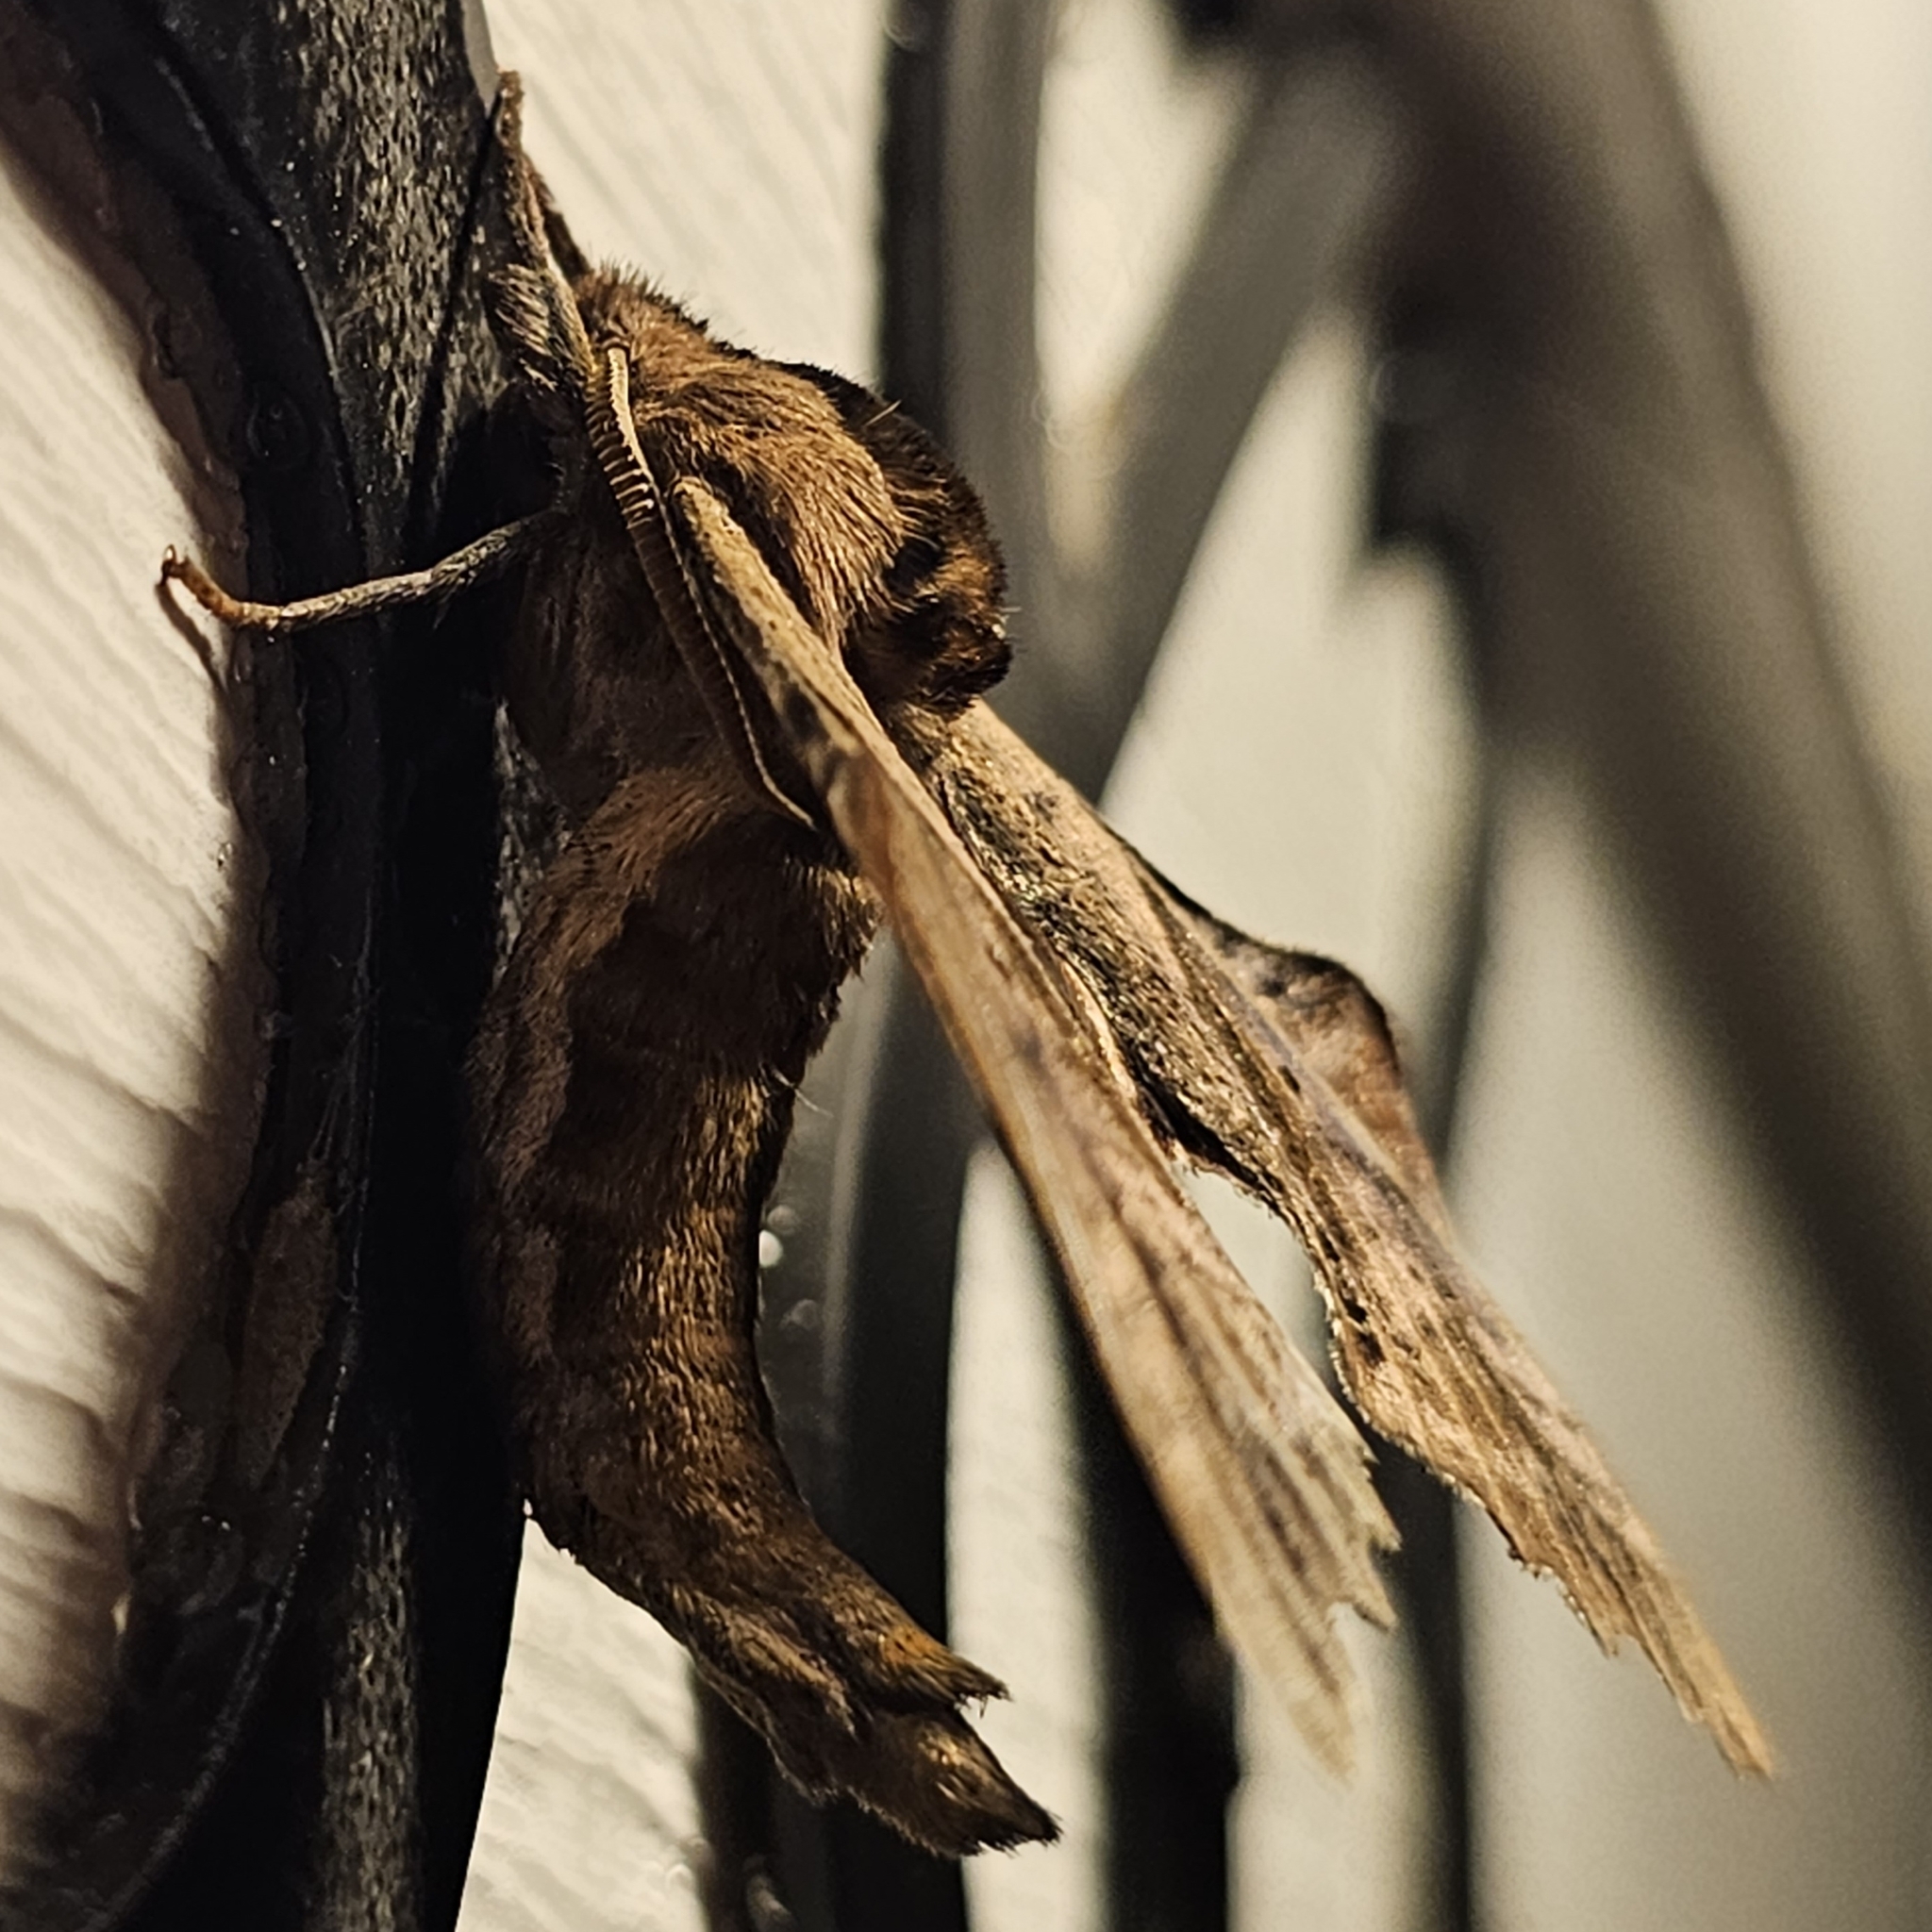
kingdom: Animalia
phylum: Arthropoda
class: Insecta
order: Lepidoptera
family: Sphingidae
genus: Paonias
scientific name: Paonias excaecata
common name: Blind-eyed sphinx
